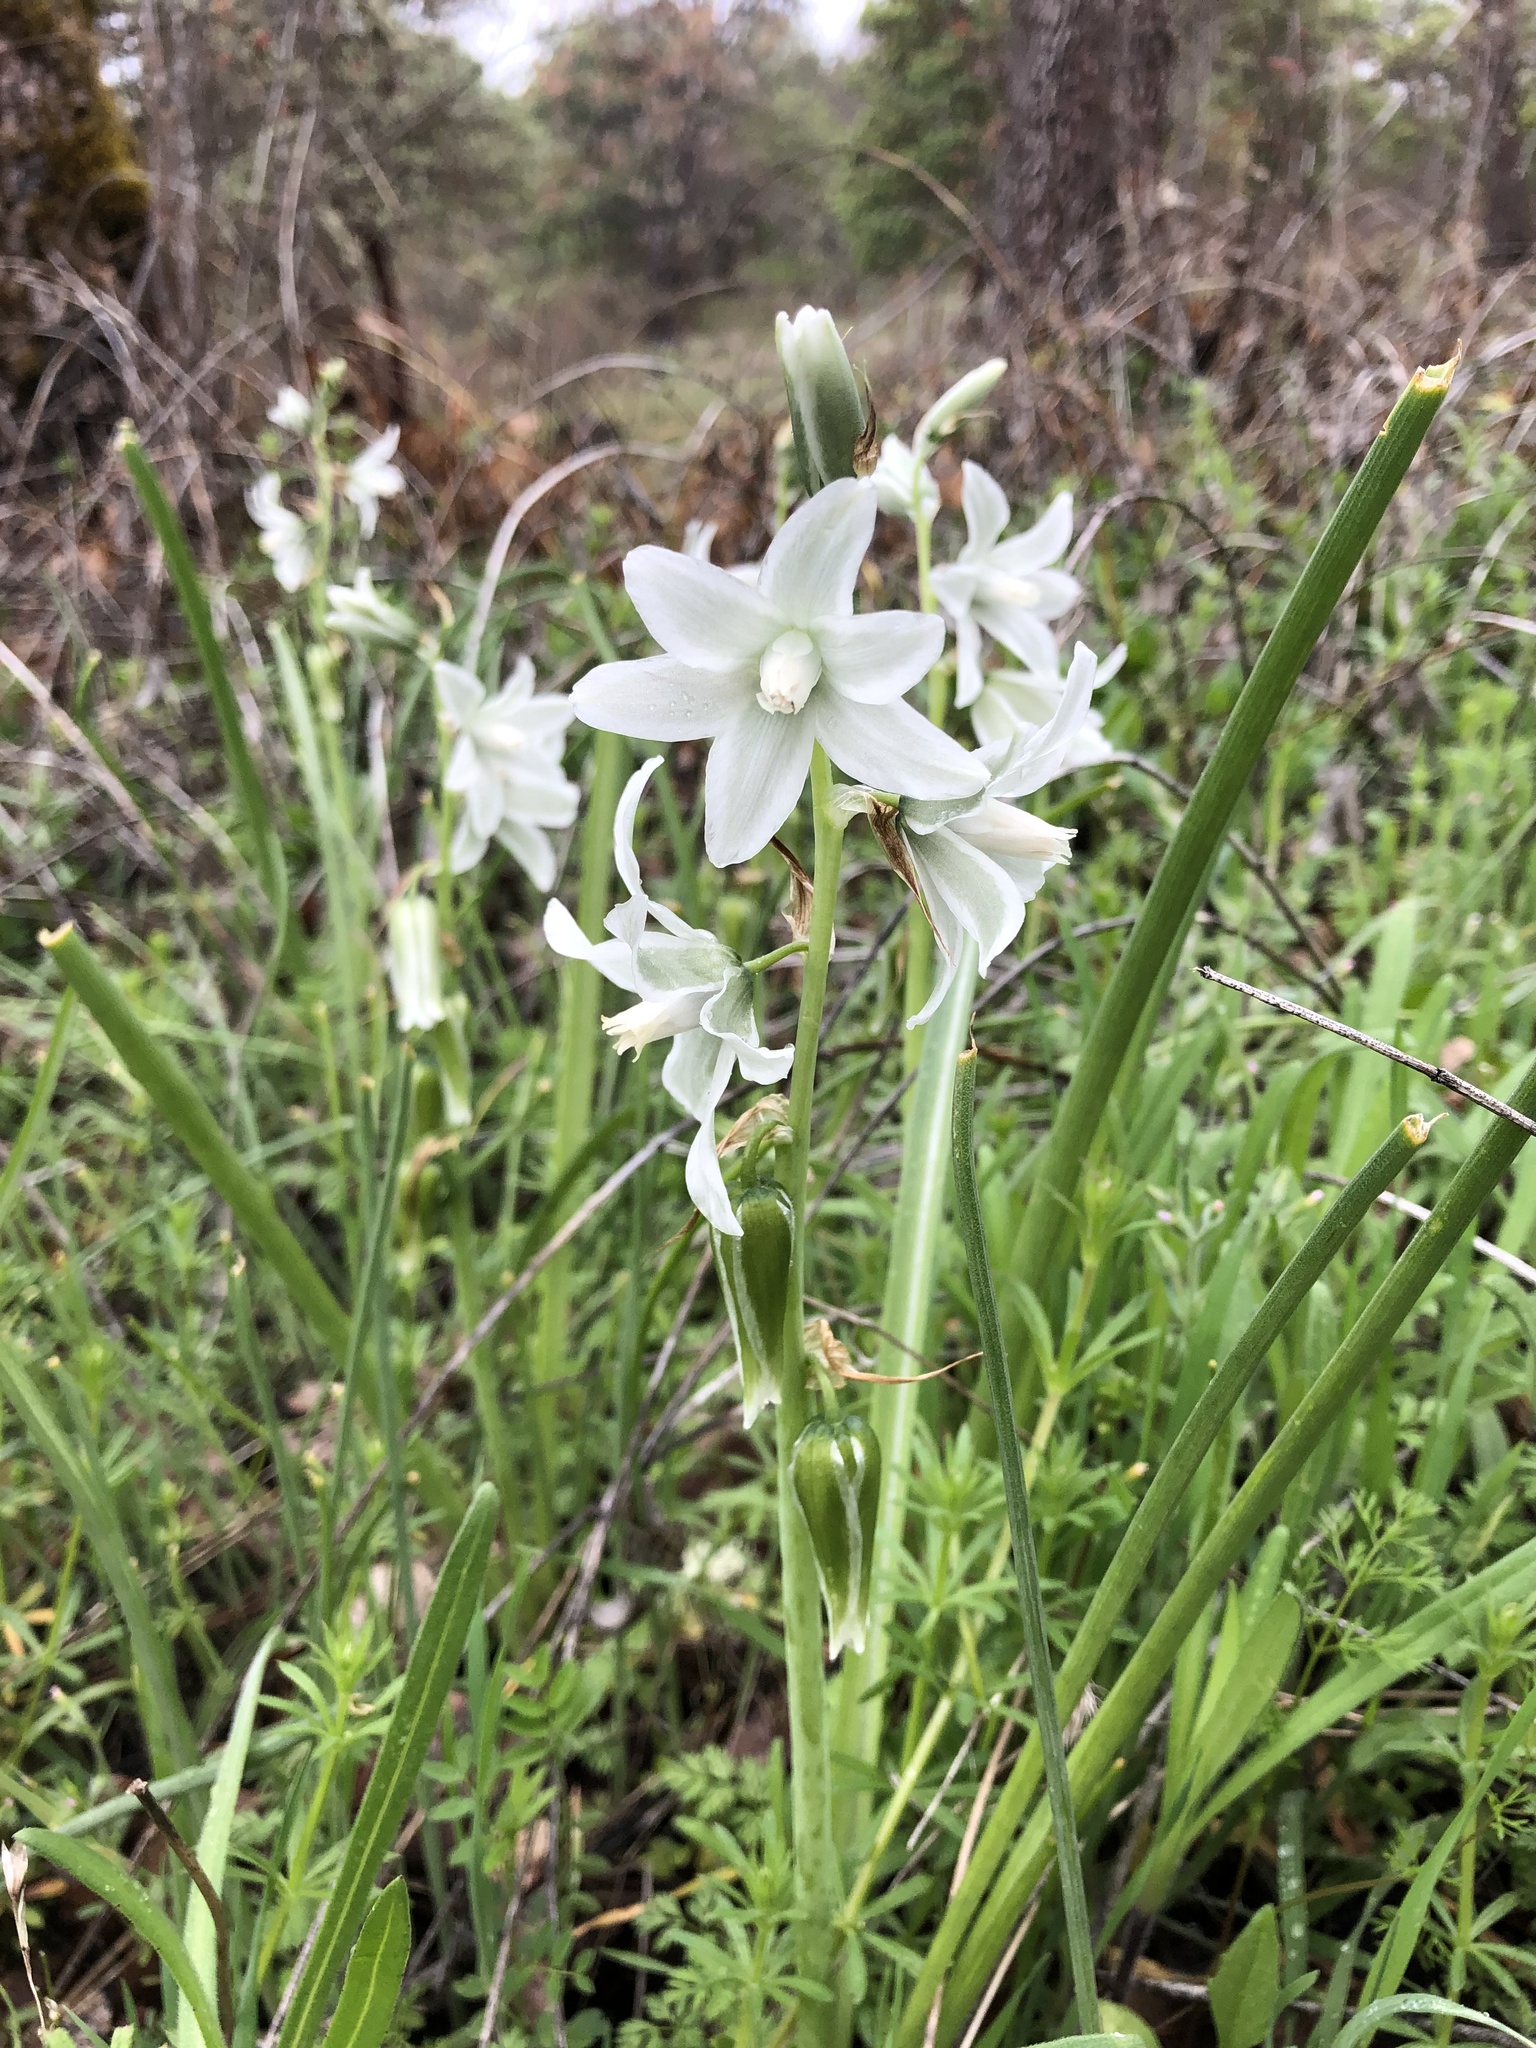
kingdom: Plantae
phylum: Tracheophyta
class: Liliopsida
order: Asparagales
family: Asparagaceae
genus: Ornithogalum
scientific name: Ornithogalum nutans
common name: Drooping star-of-bethlehem
